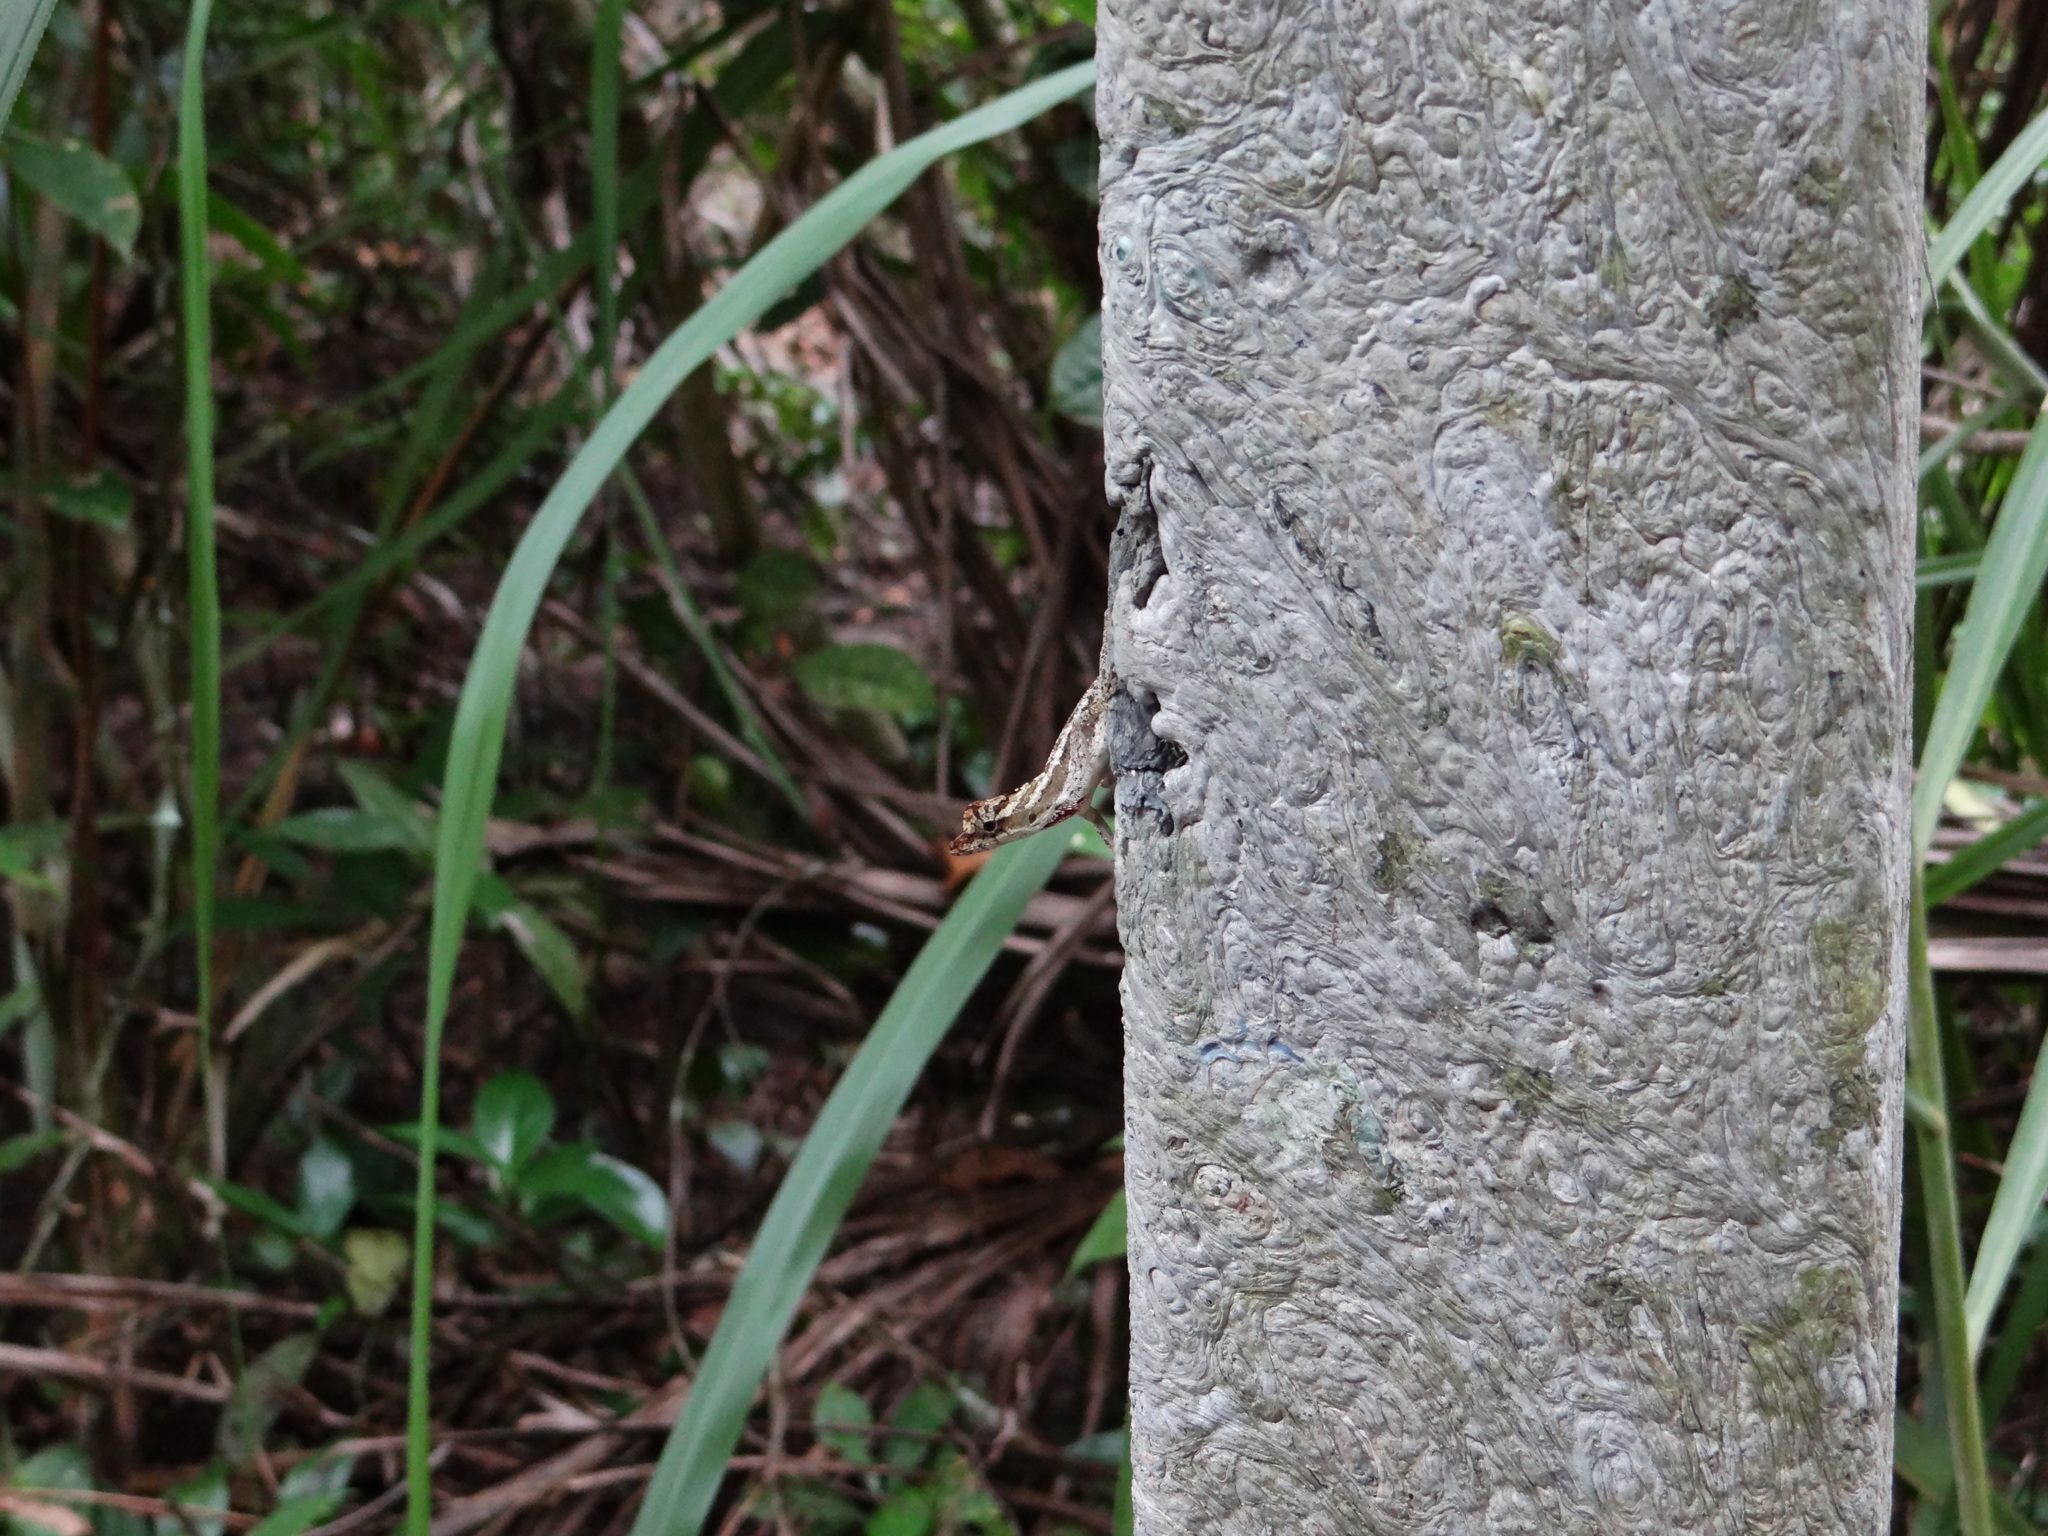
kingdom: Animalia
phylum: Chordata
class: Squamata
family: Dactyloidae
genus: Anolis
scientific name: Anolis lemurinus
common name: Ghost anole
